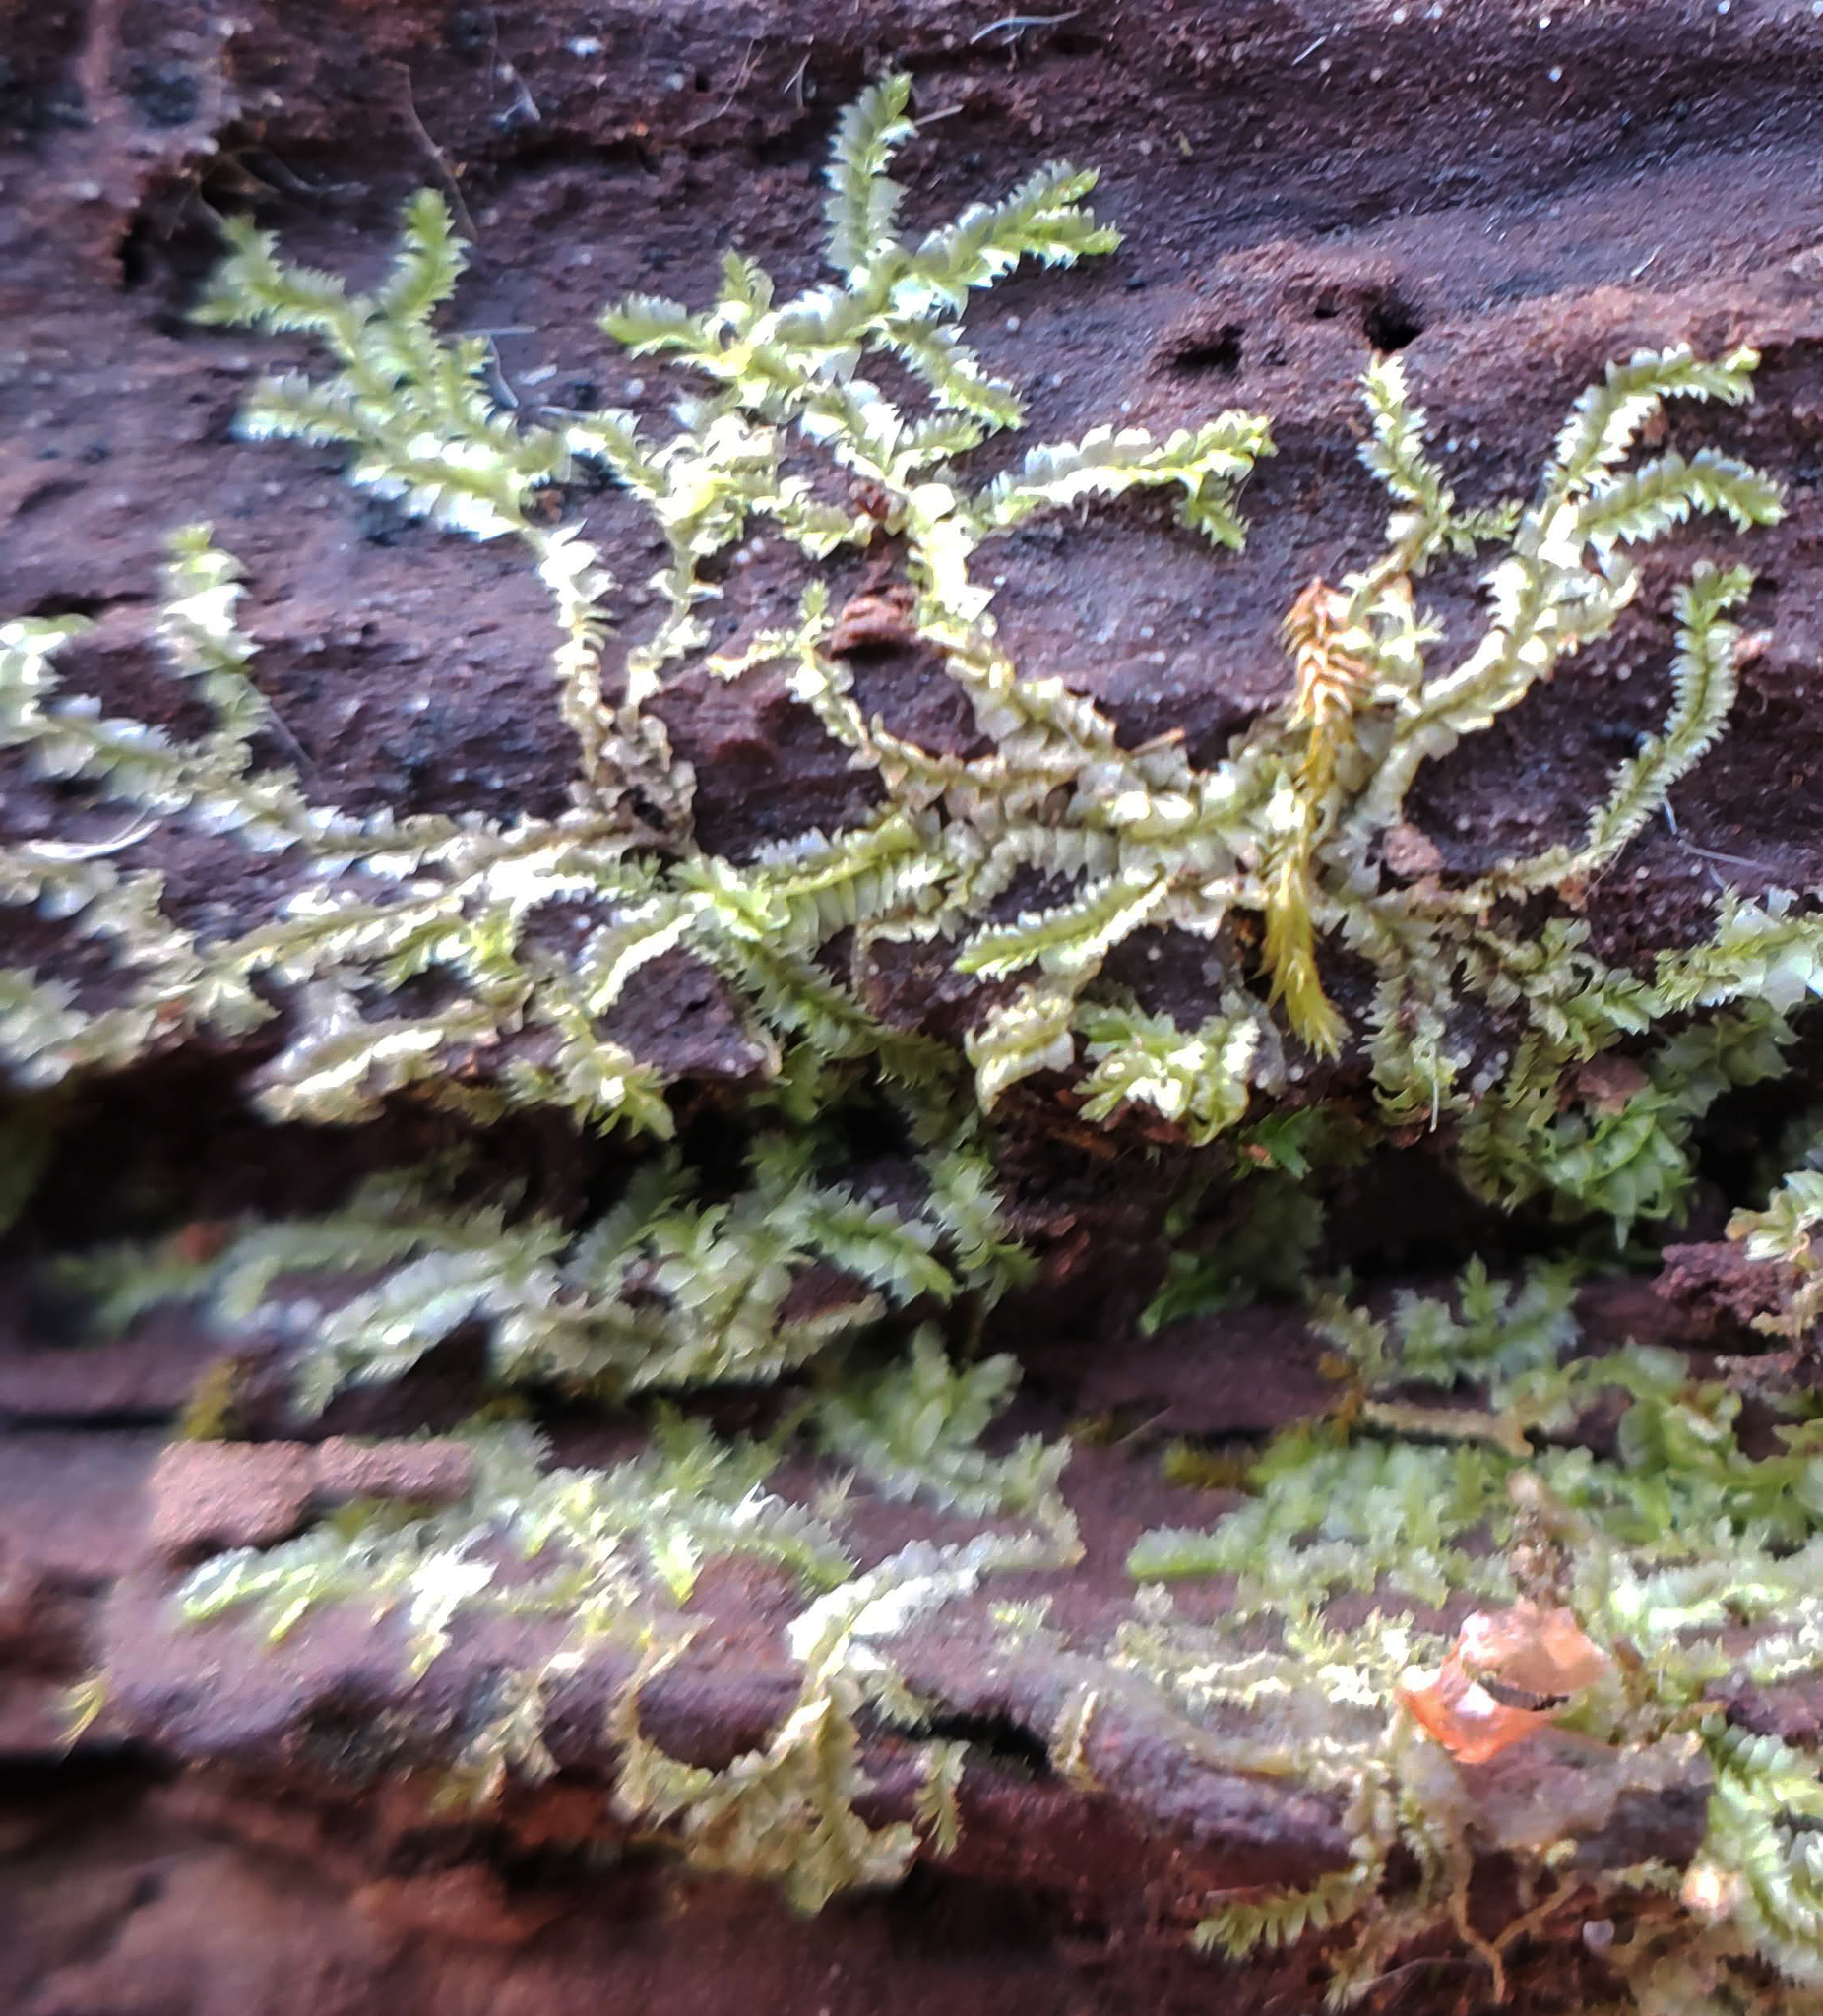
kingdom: Plantae
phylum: Marchantiophyta
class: Jungermanniopsida
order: Jungermanniales
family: Lophocoleaceae
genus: Lophocolea
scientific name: Lophocolea heterophylla
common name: Variable-leaved crestwort
